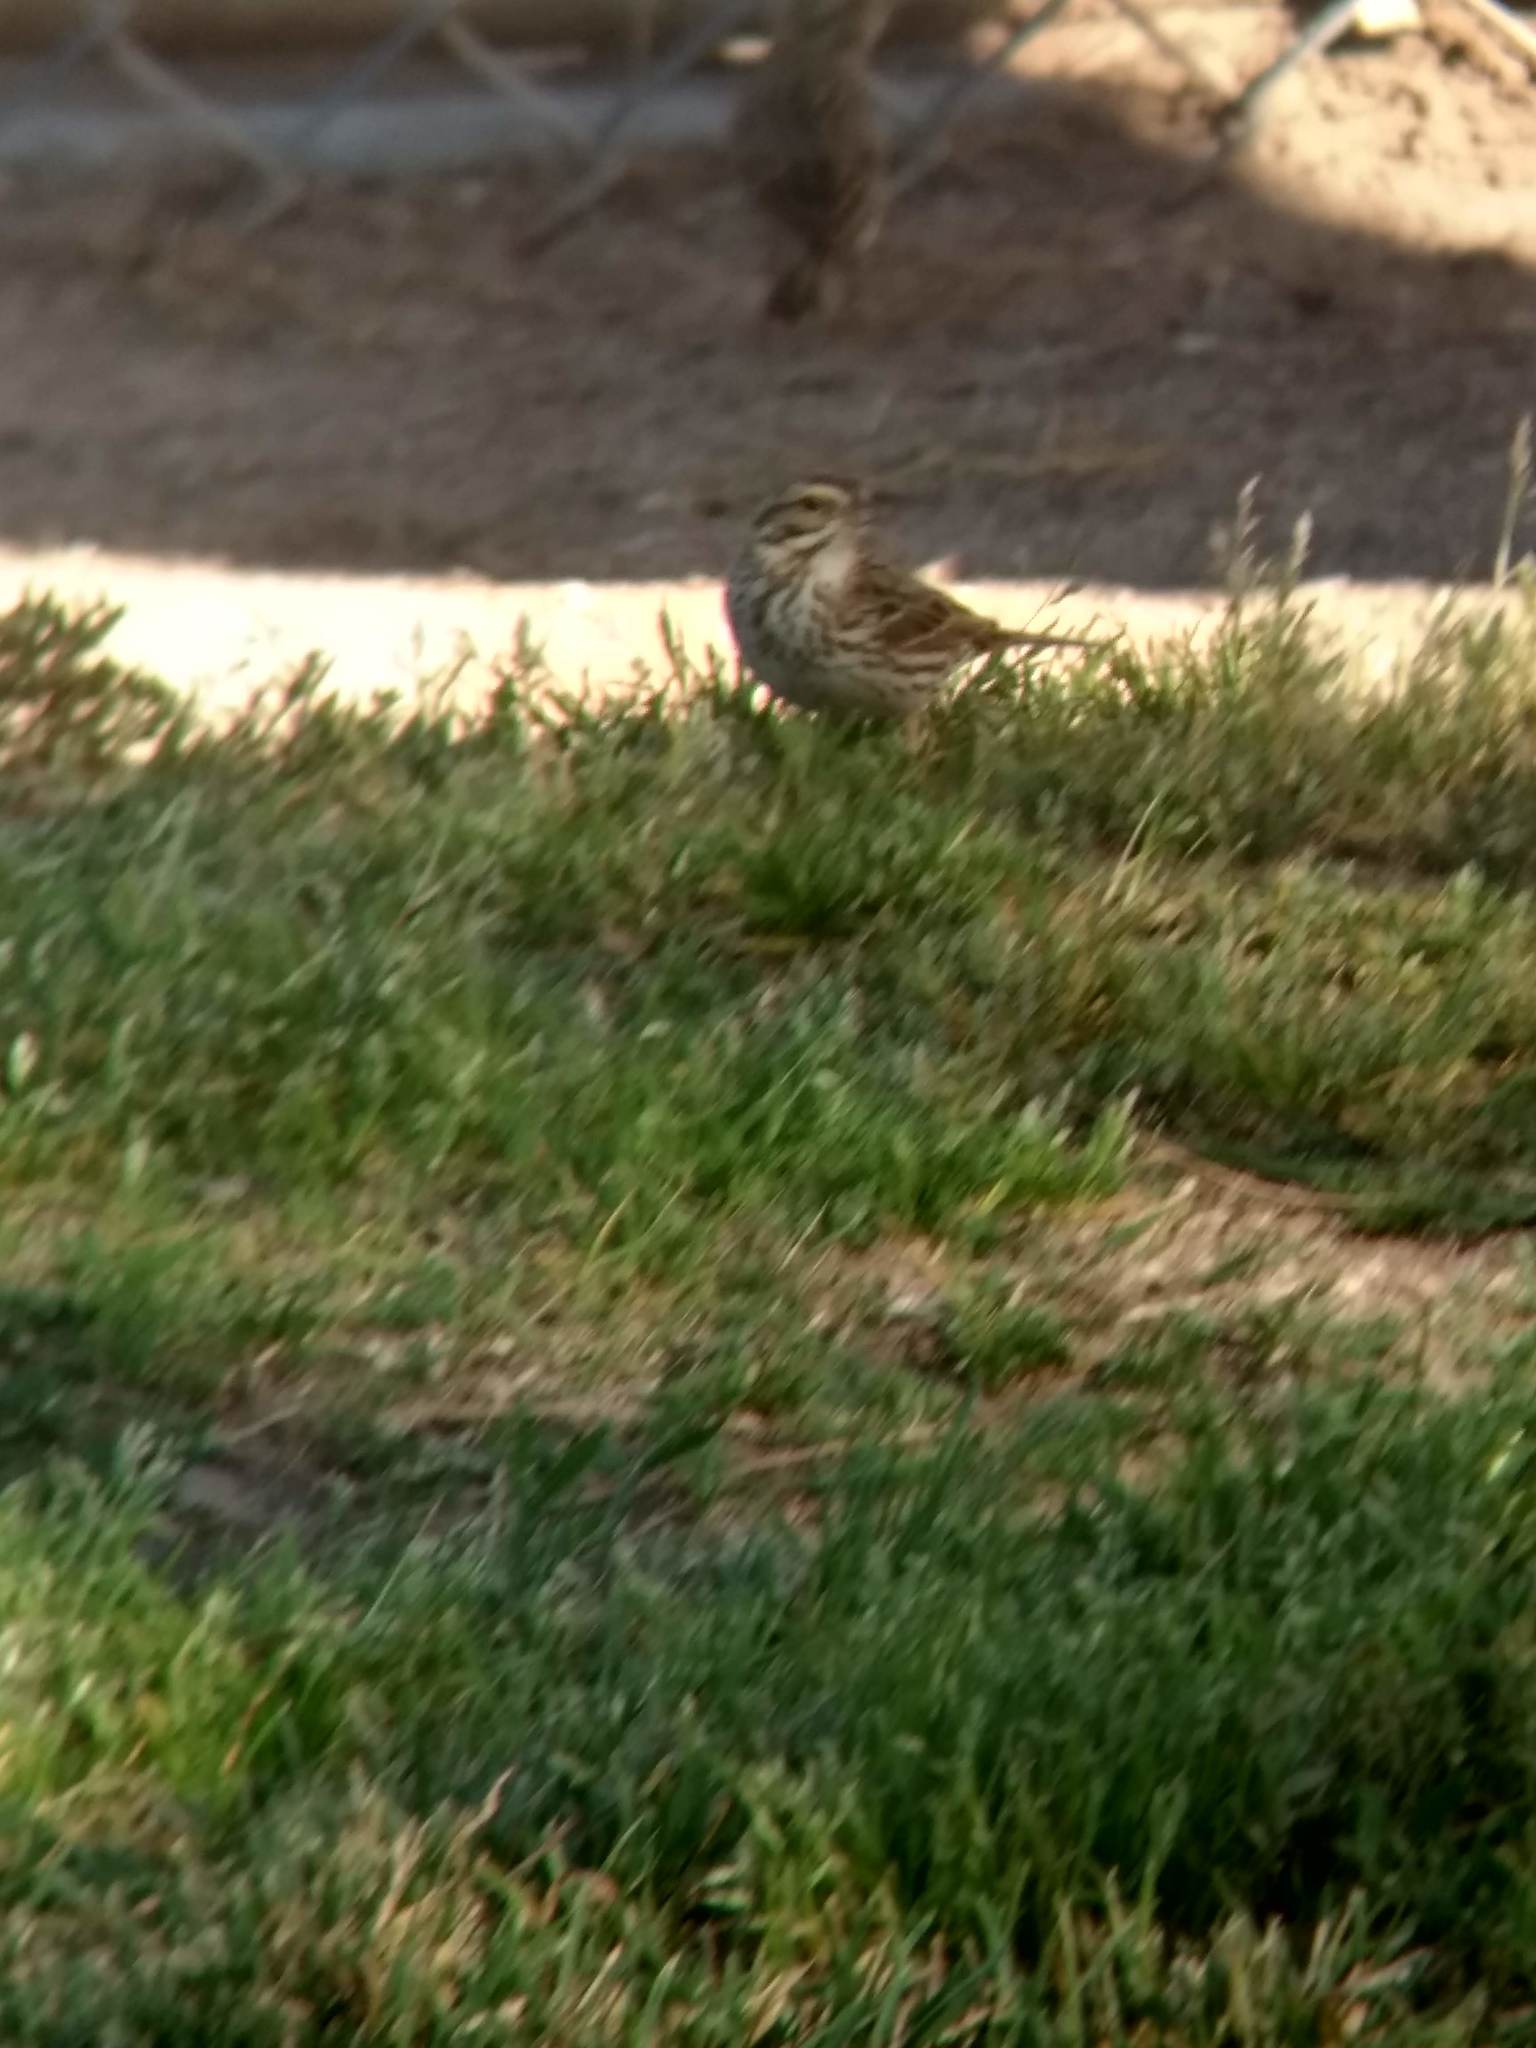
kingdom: Animalia
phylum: Chordata
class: Aves
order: Passeriformes
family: Passerellidae
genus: Passerculus
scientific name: Passerculus sandwichensis
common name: Savannah sparrow
